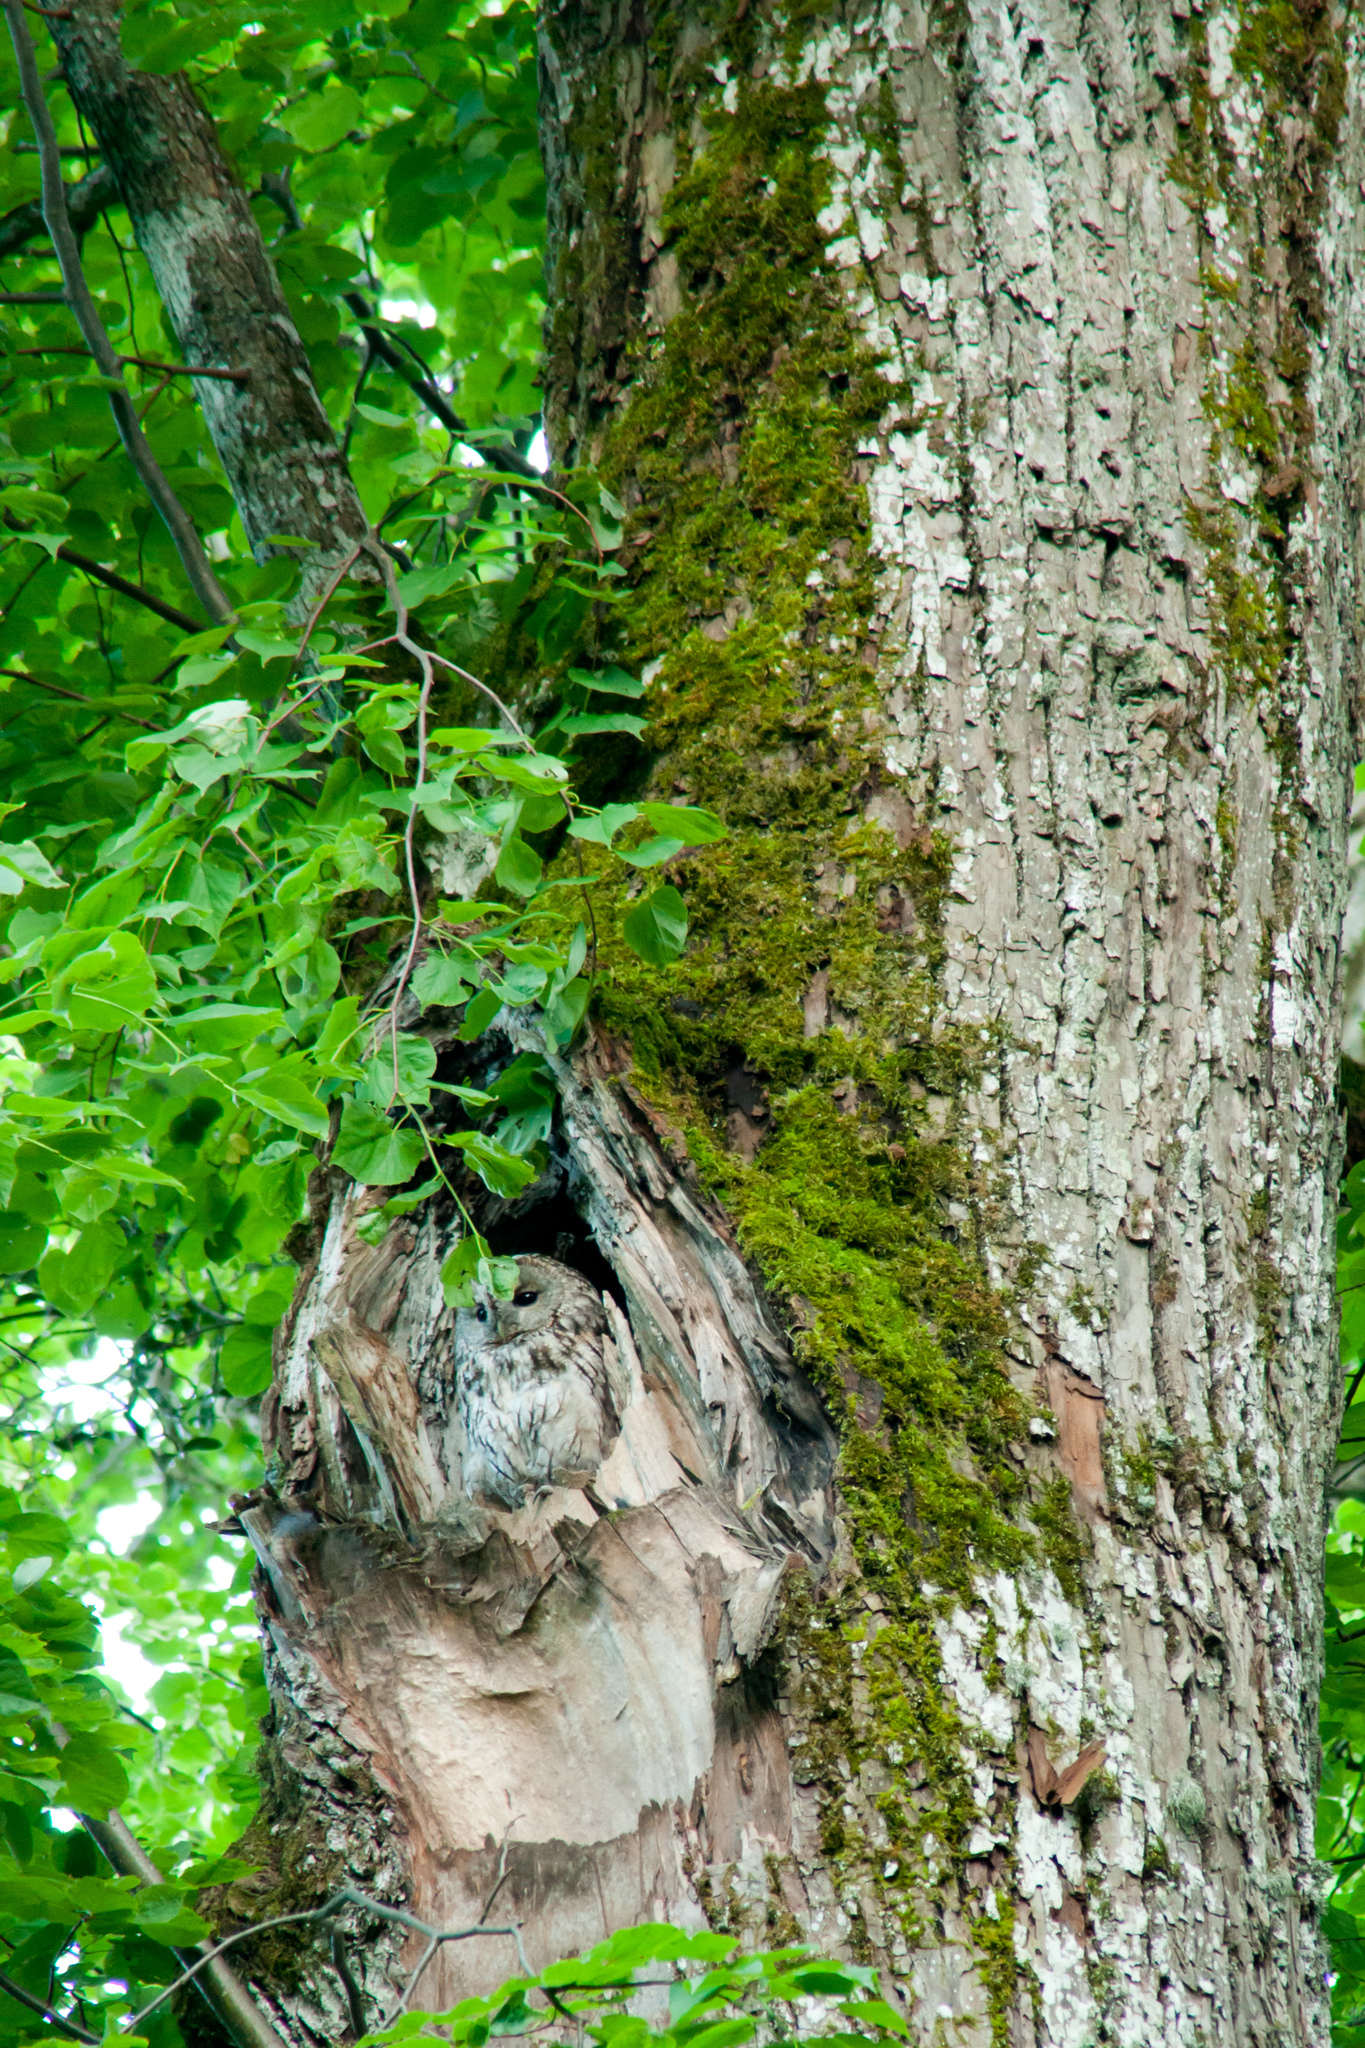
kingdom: Animalia
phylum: Chordata
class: Aves
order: Strigiformes
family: Strigidae
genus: Strix
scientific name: Strix aluco
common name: Tawny owl
